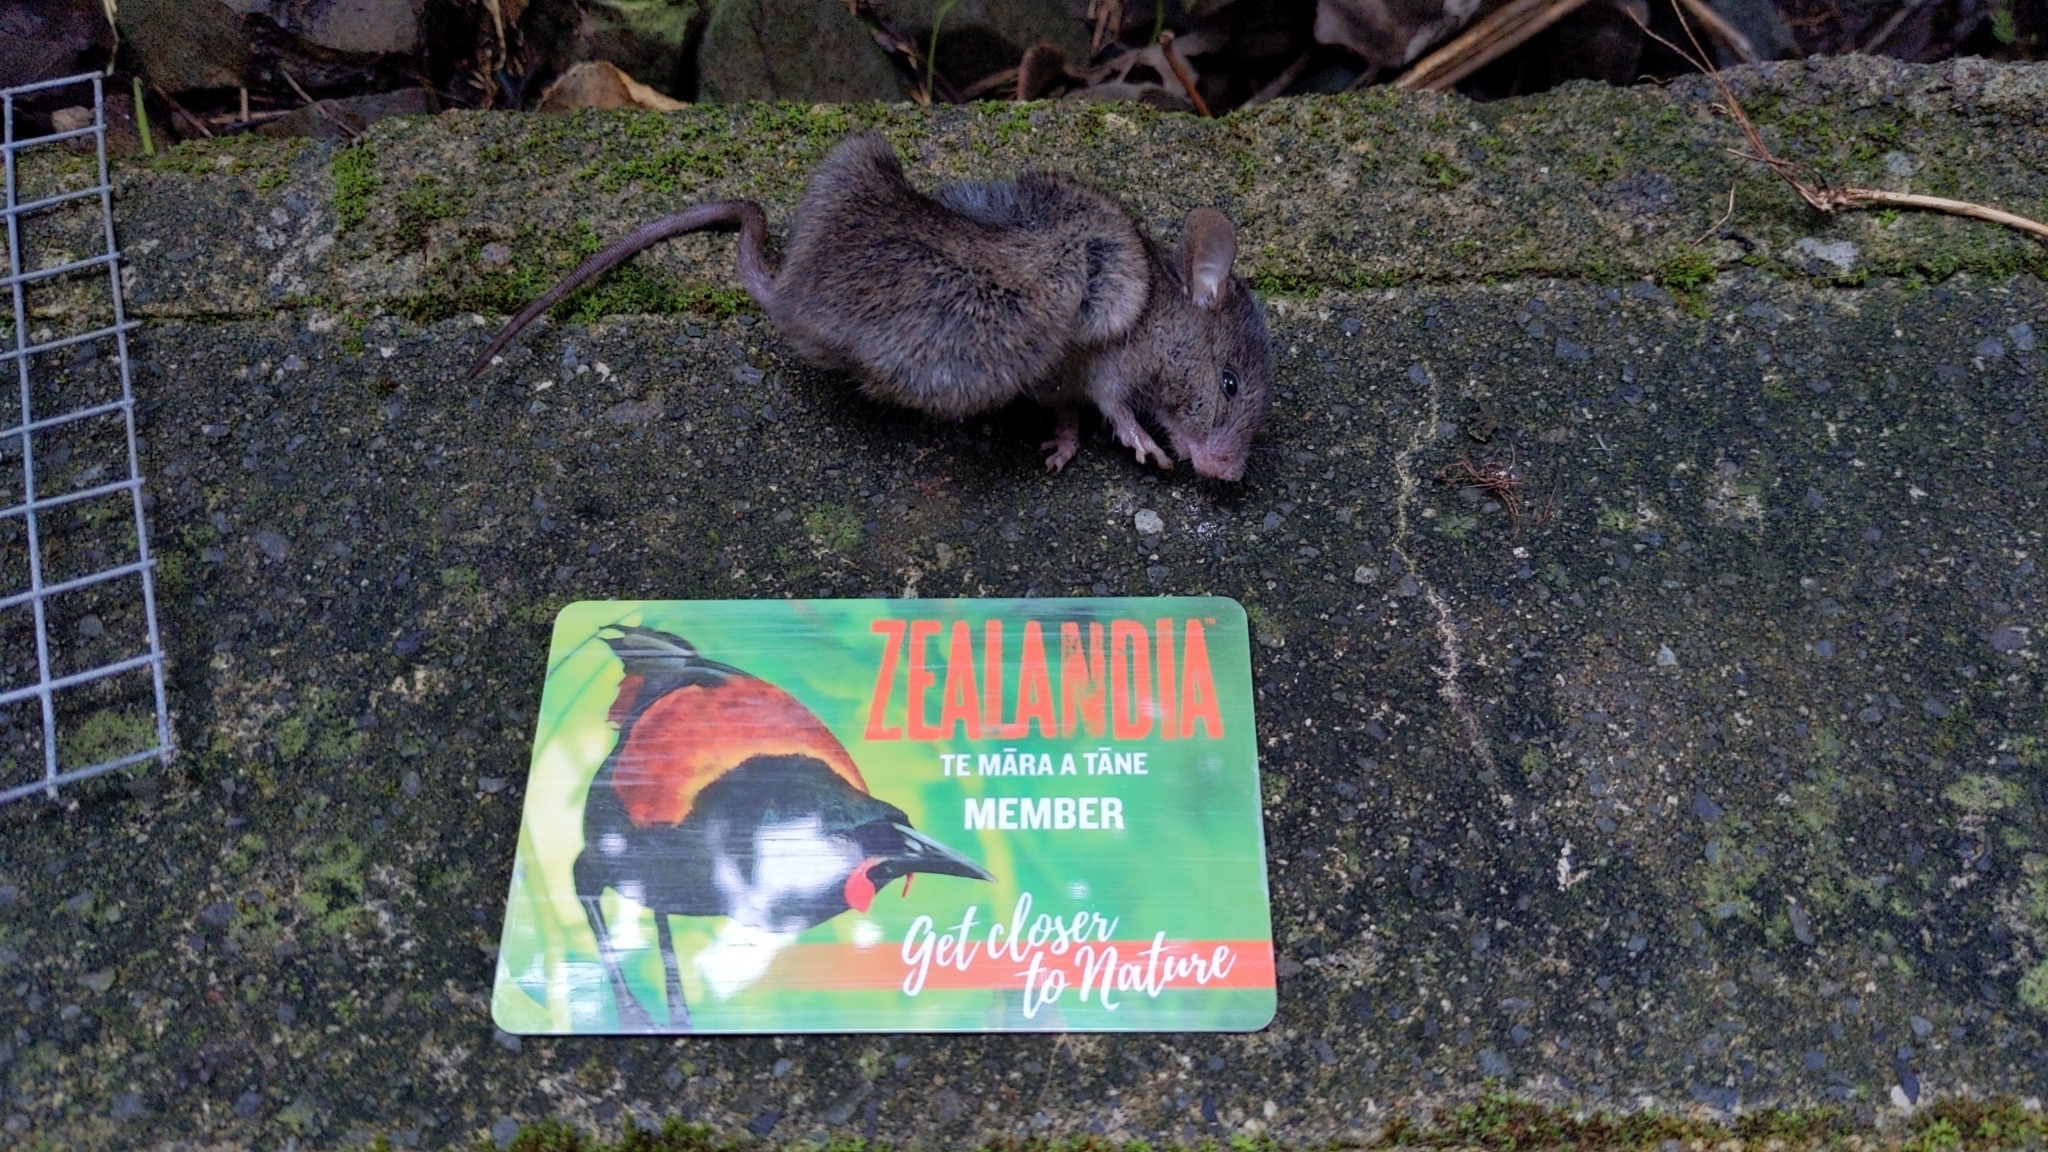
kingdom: Animalia
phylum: Chordata
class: Mammalia
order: Rodentia
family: Muridae
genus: Mus
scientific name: Mus musculus
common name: House mouse
